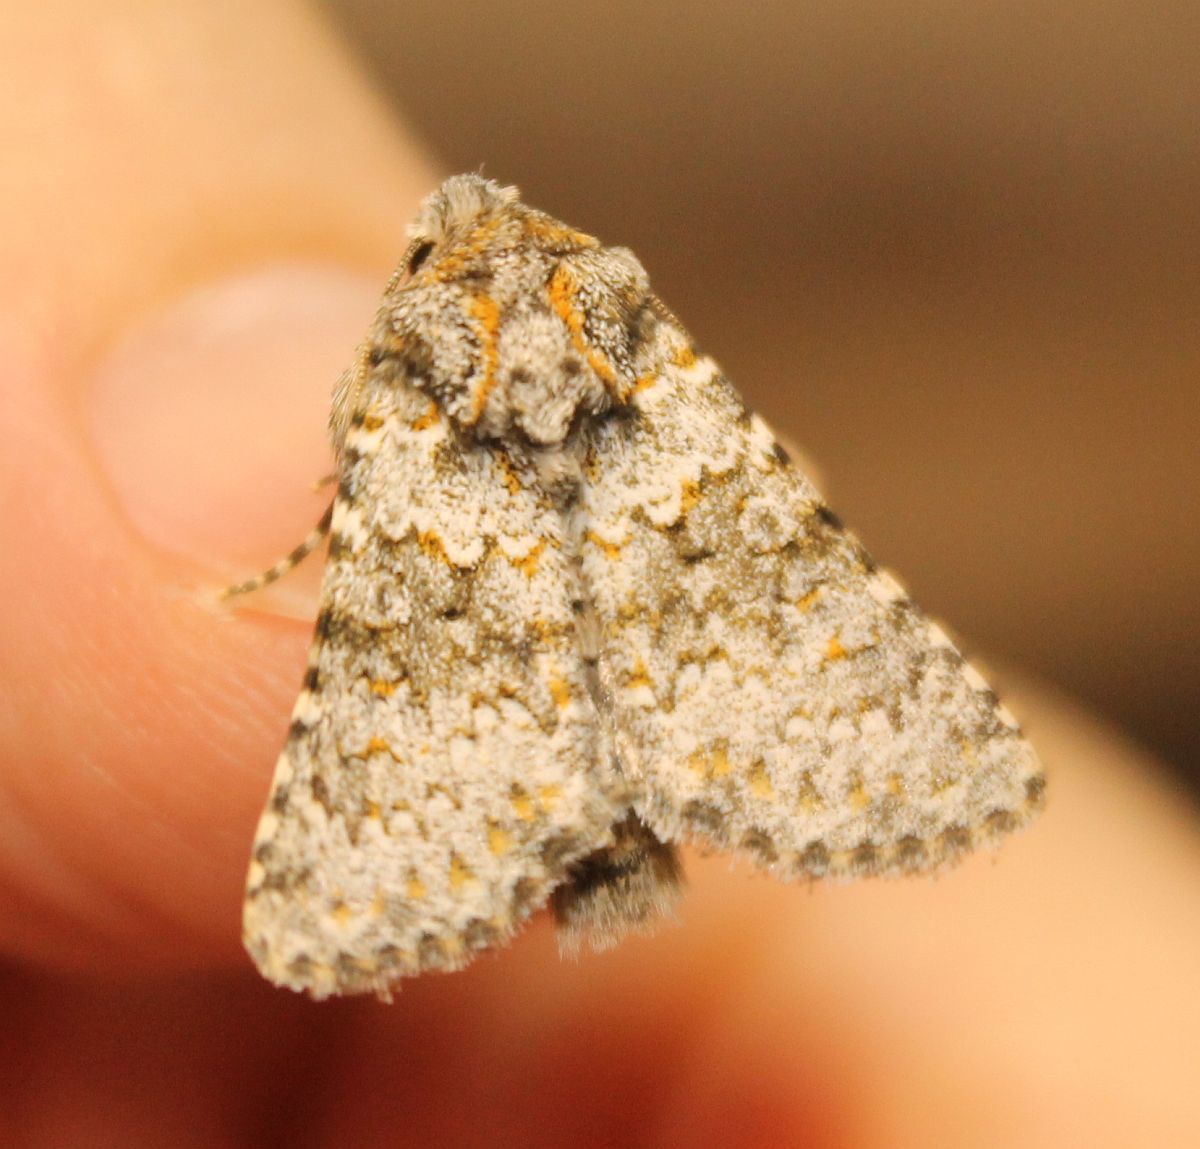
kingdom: Animalia
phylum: Arthropoda
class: Insecta
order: Lepidoptera
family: Noctuidae
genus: Hecatera
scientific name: Hecatera dysodea
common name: Small ranunculus
